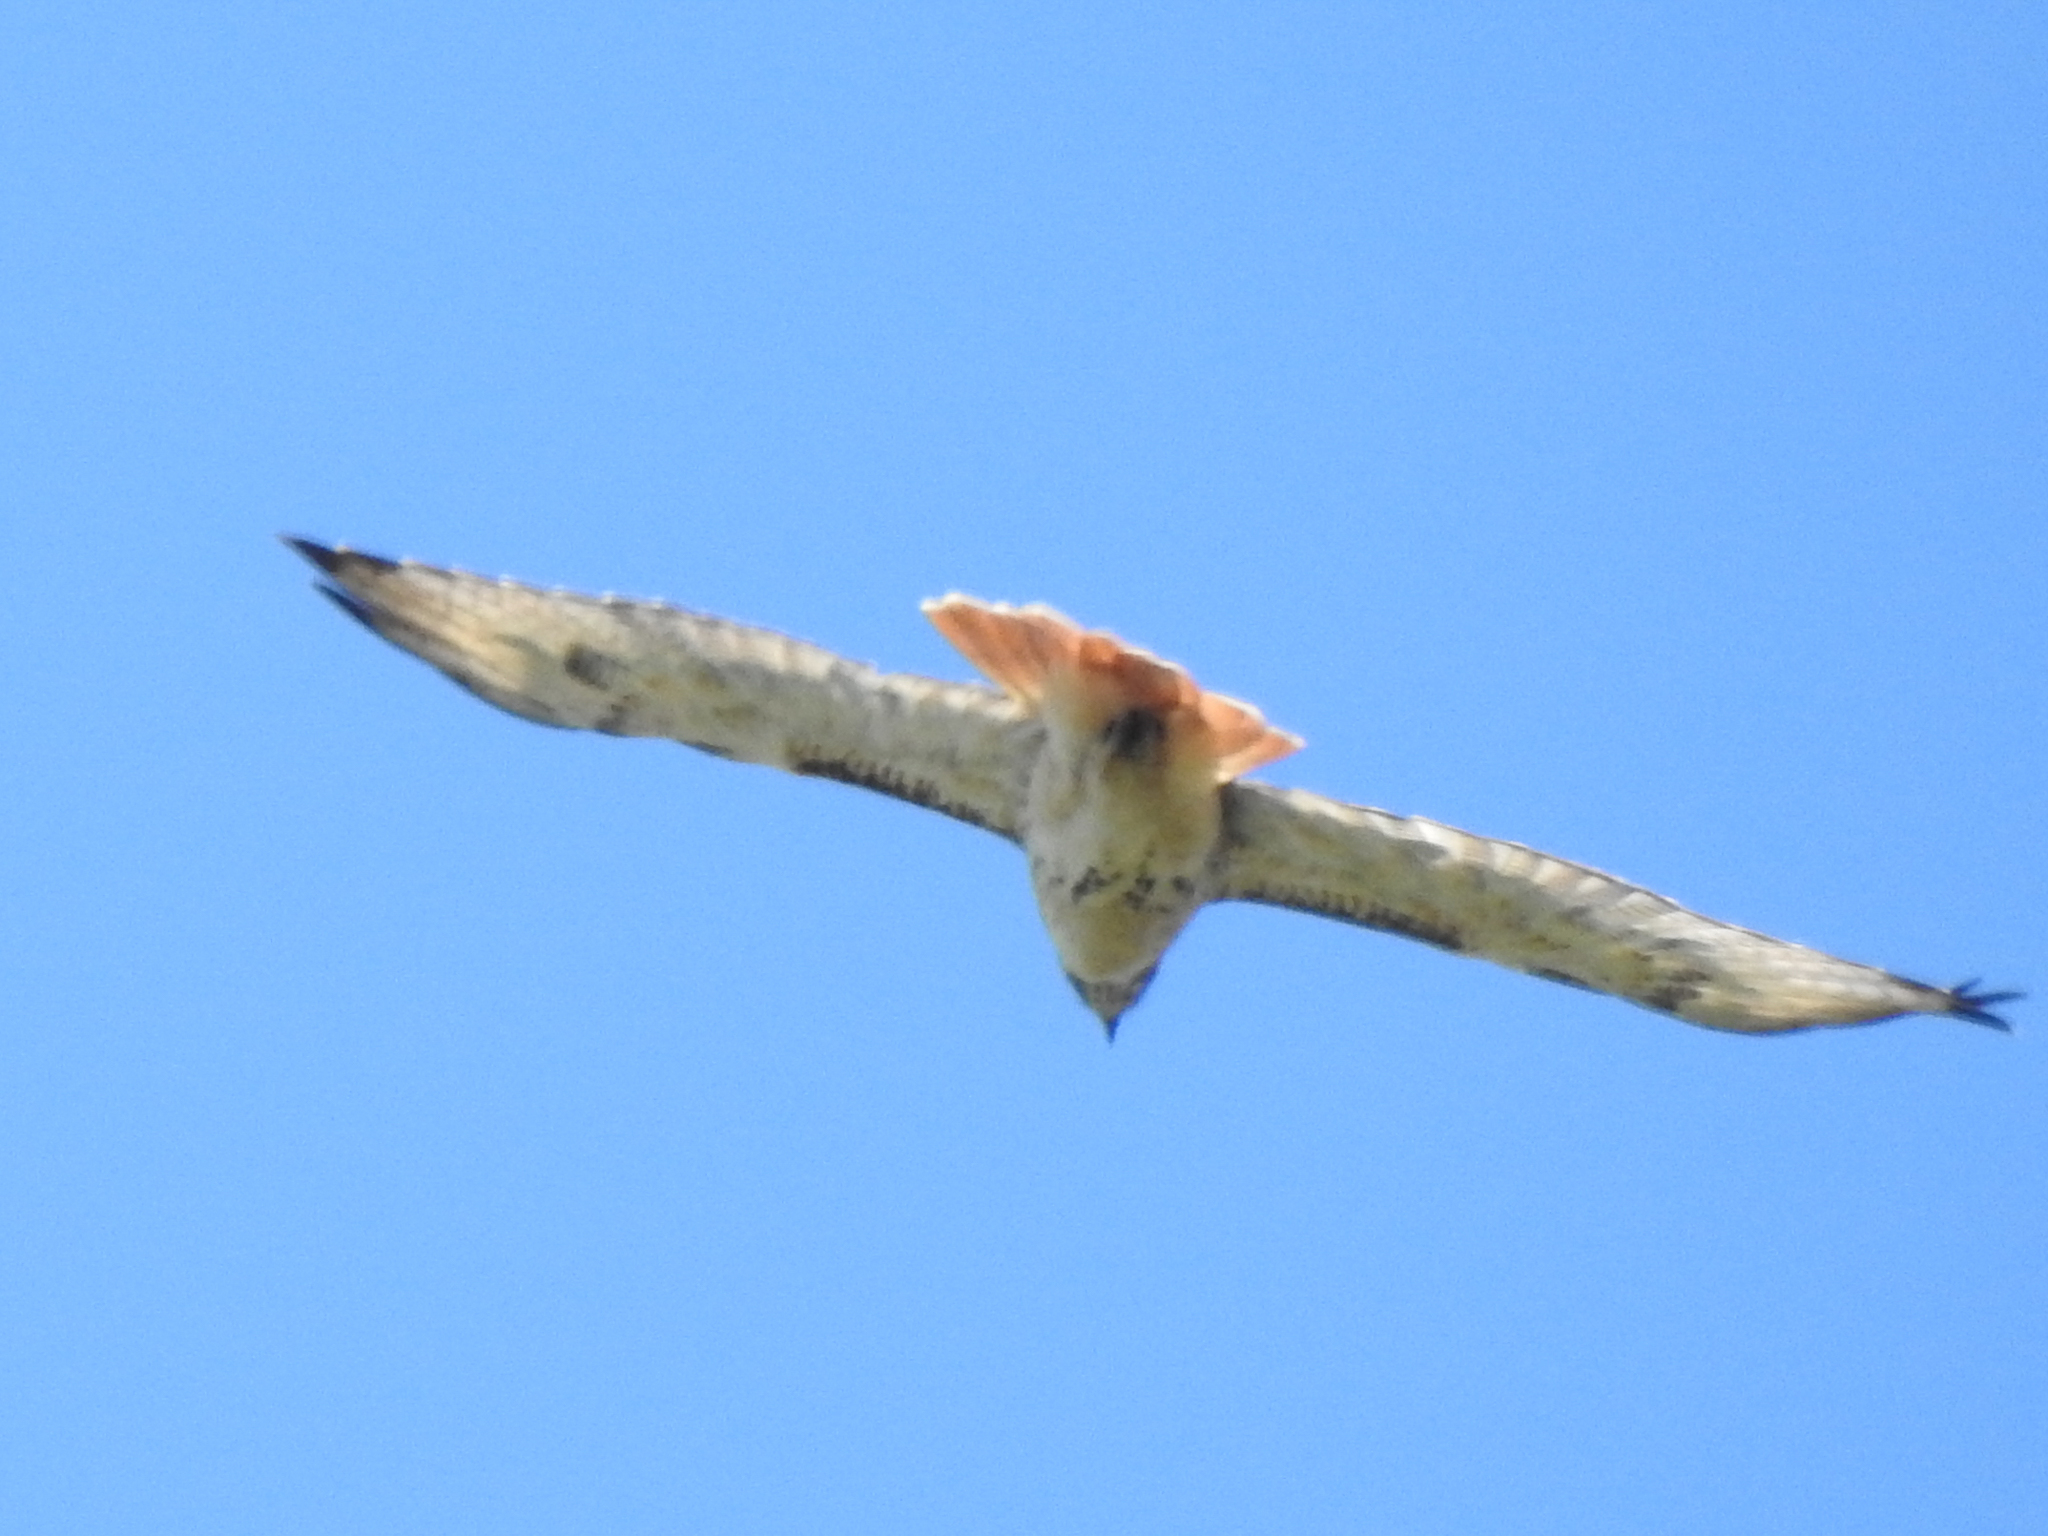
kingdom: Animalia
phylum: Chordata
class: Aves
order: Accipitriformes
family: Accipitridae
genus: Buteo
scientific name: Buteo jamaicensis
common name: Red-tailed hawk
